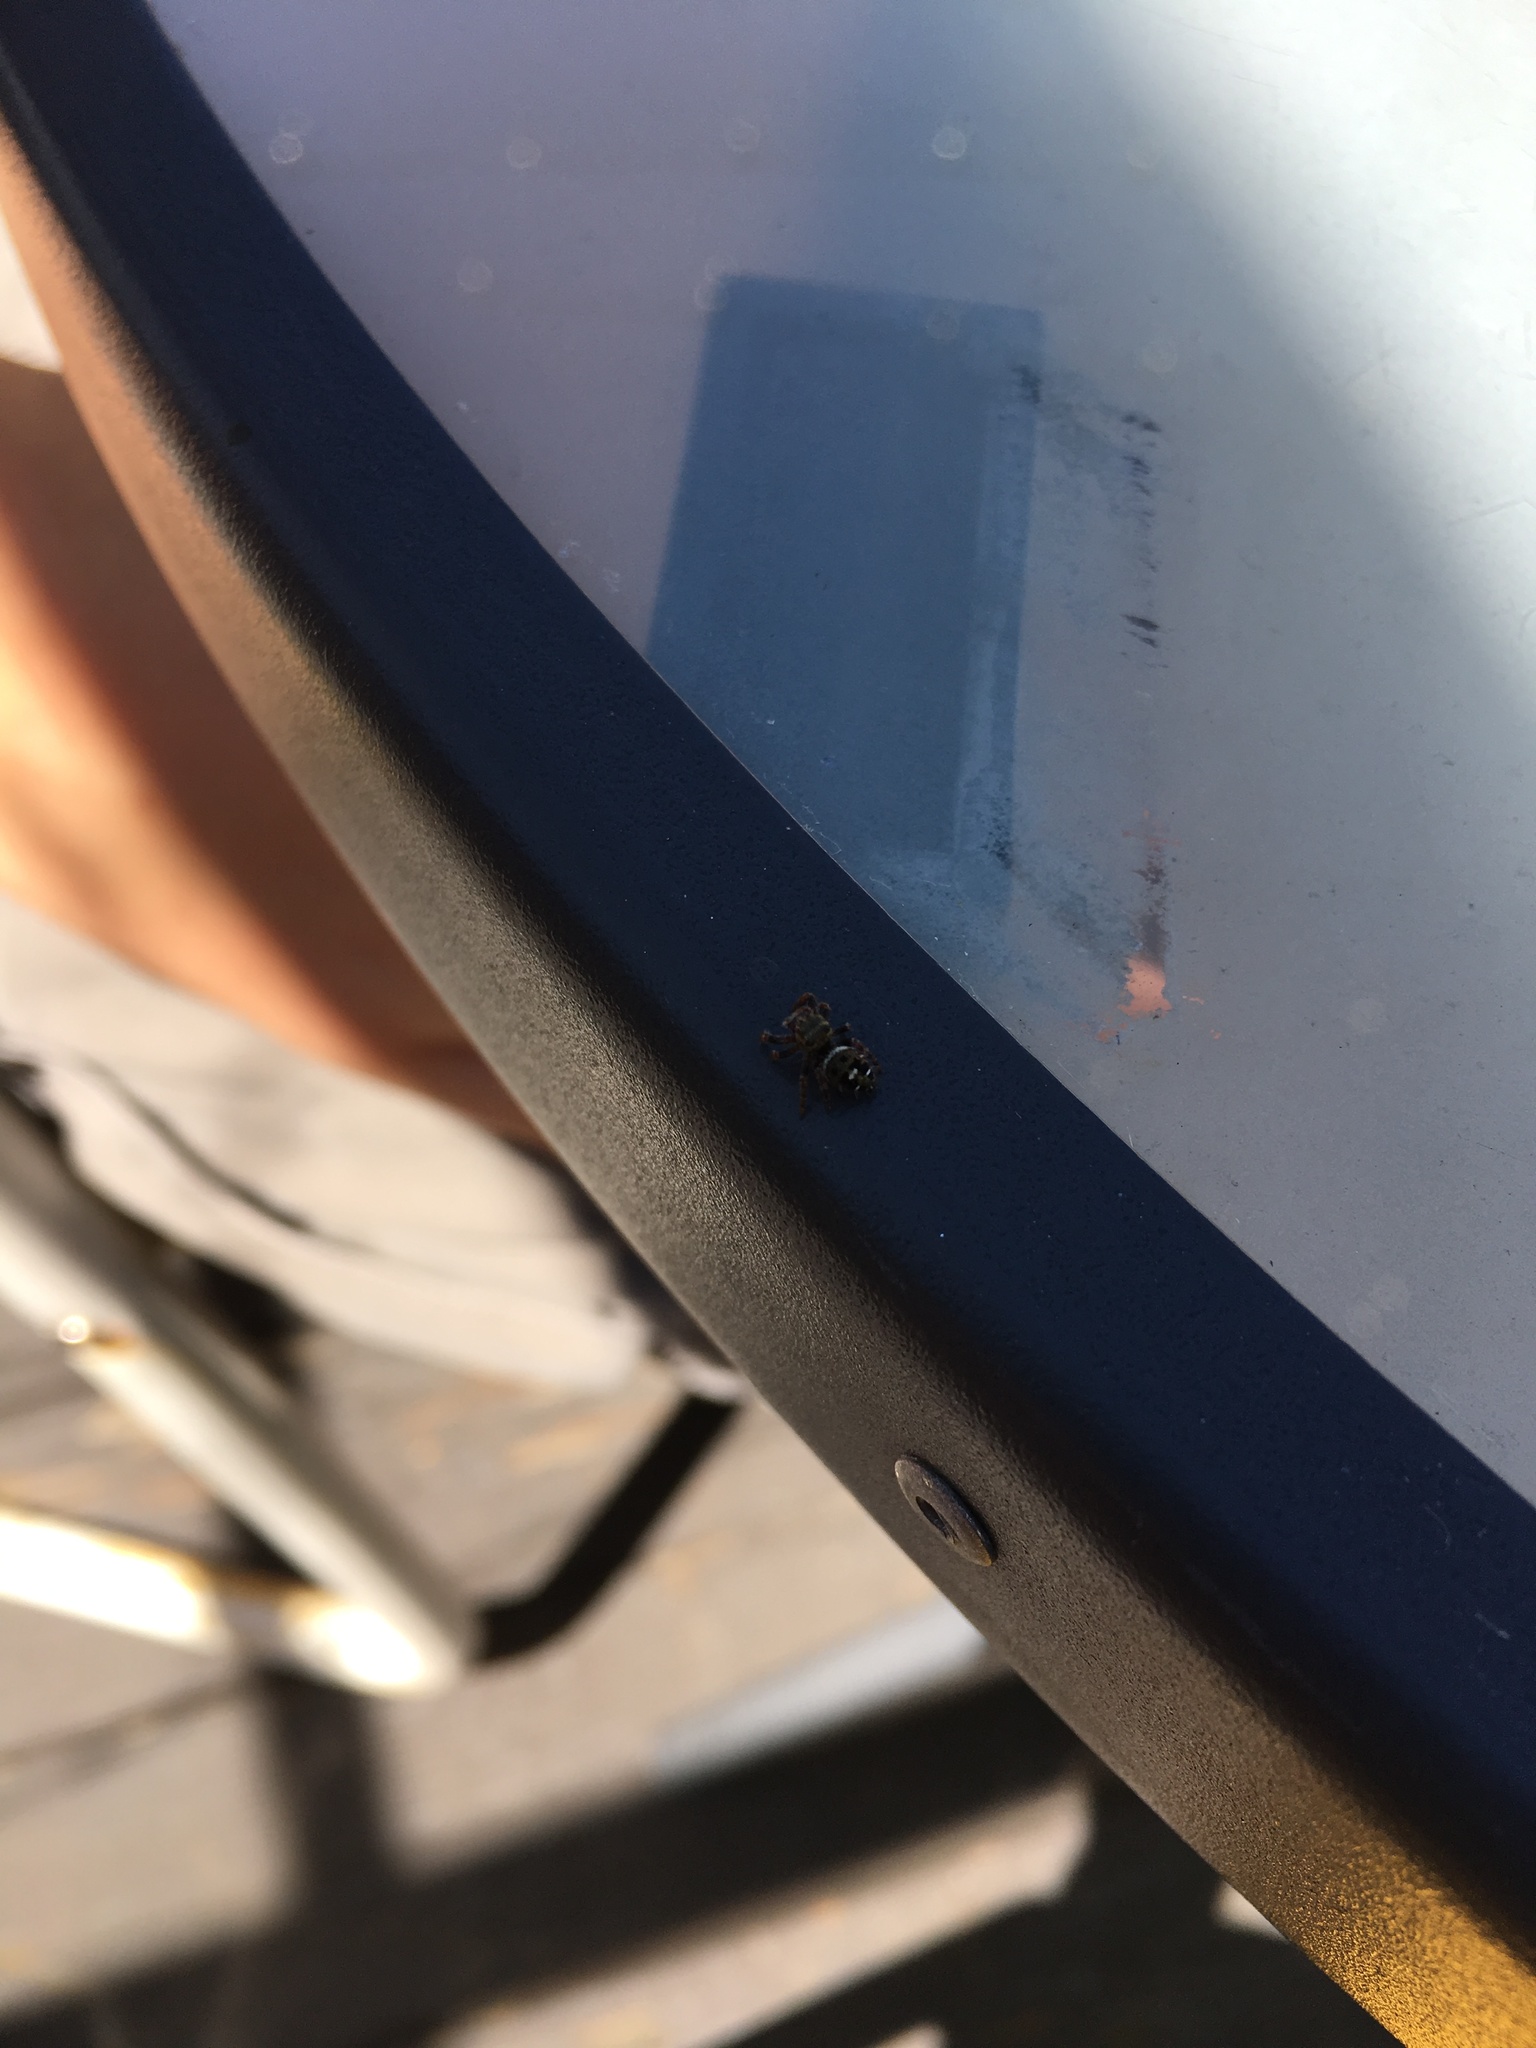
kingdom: Animalia
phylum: Arthropoda
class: Arachnida
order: Araneae
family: Salticidae
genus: Phidippus
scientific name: Phidippus audax
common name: Bold jumper
